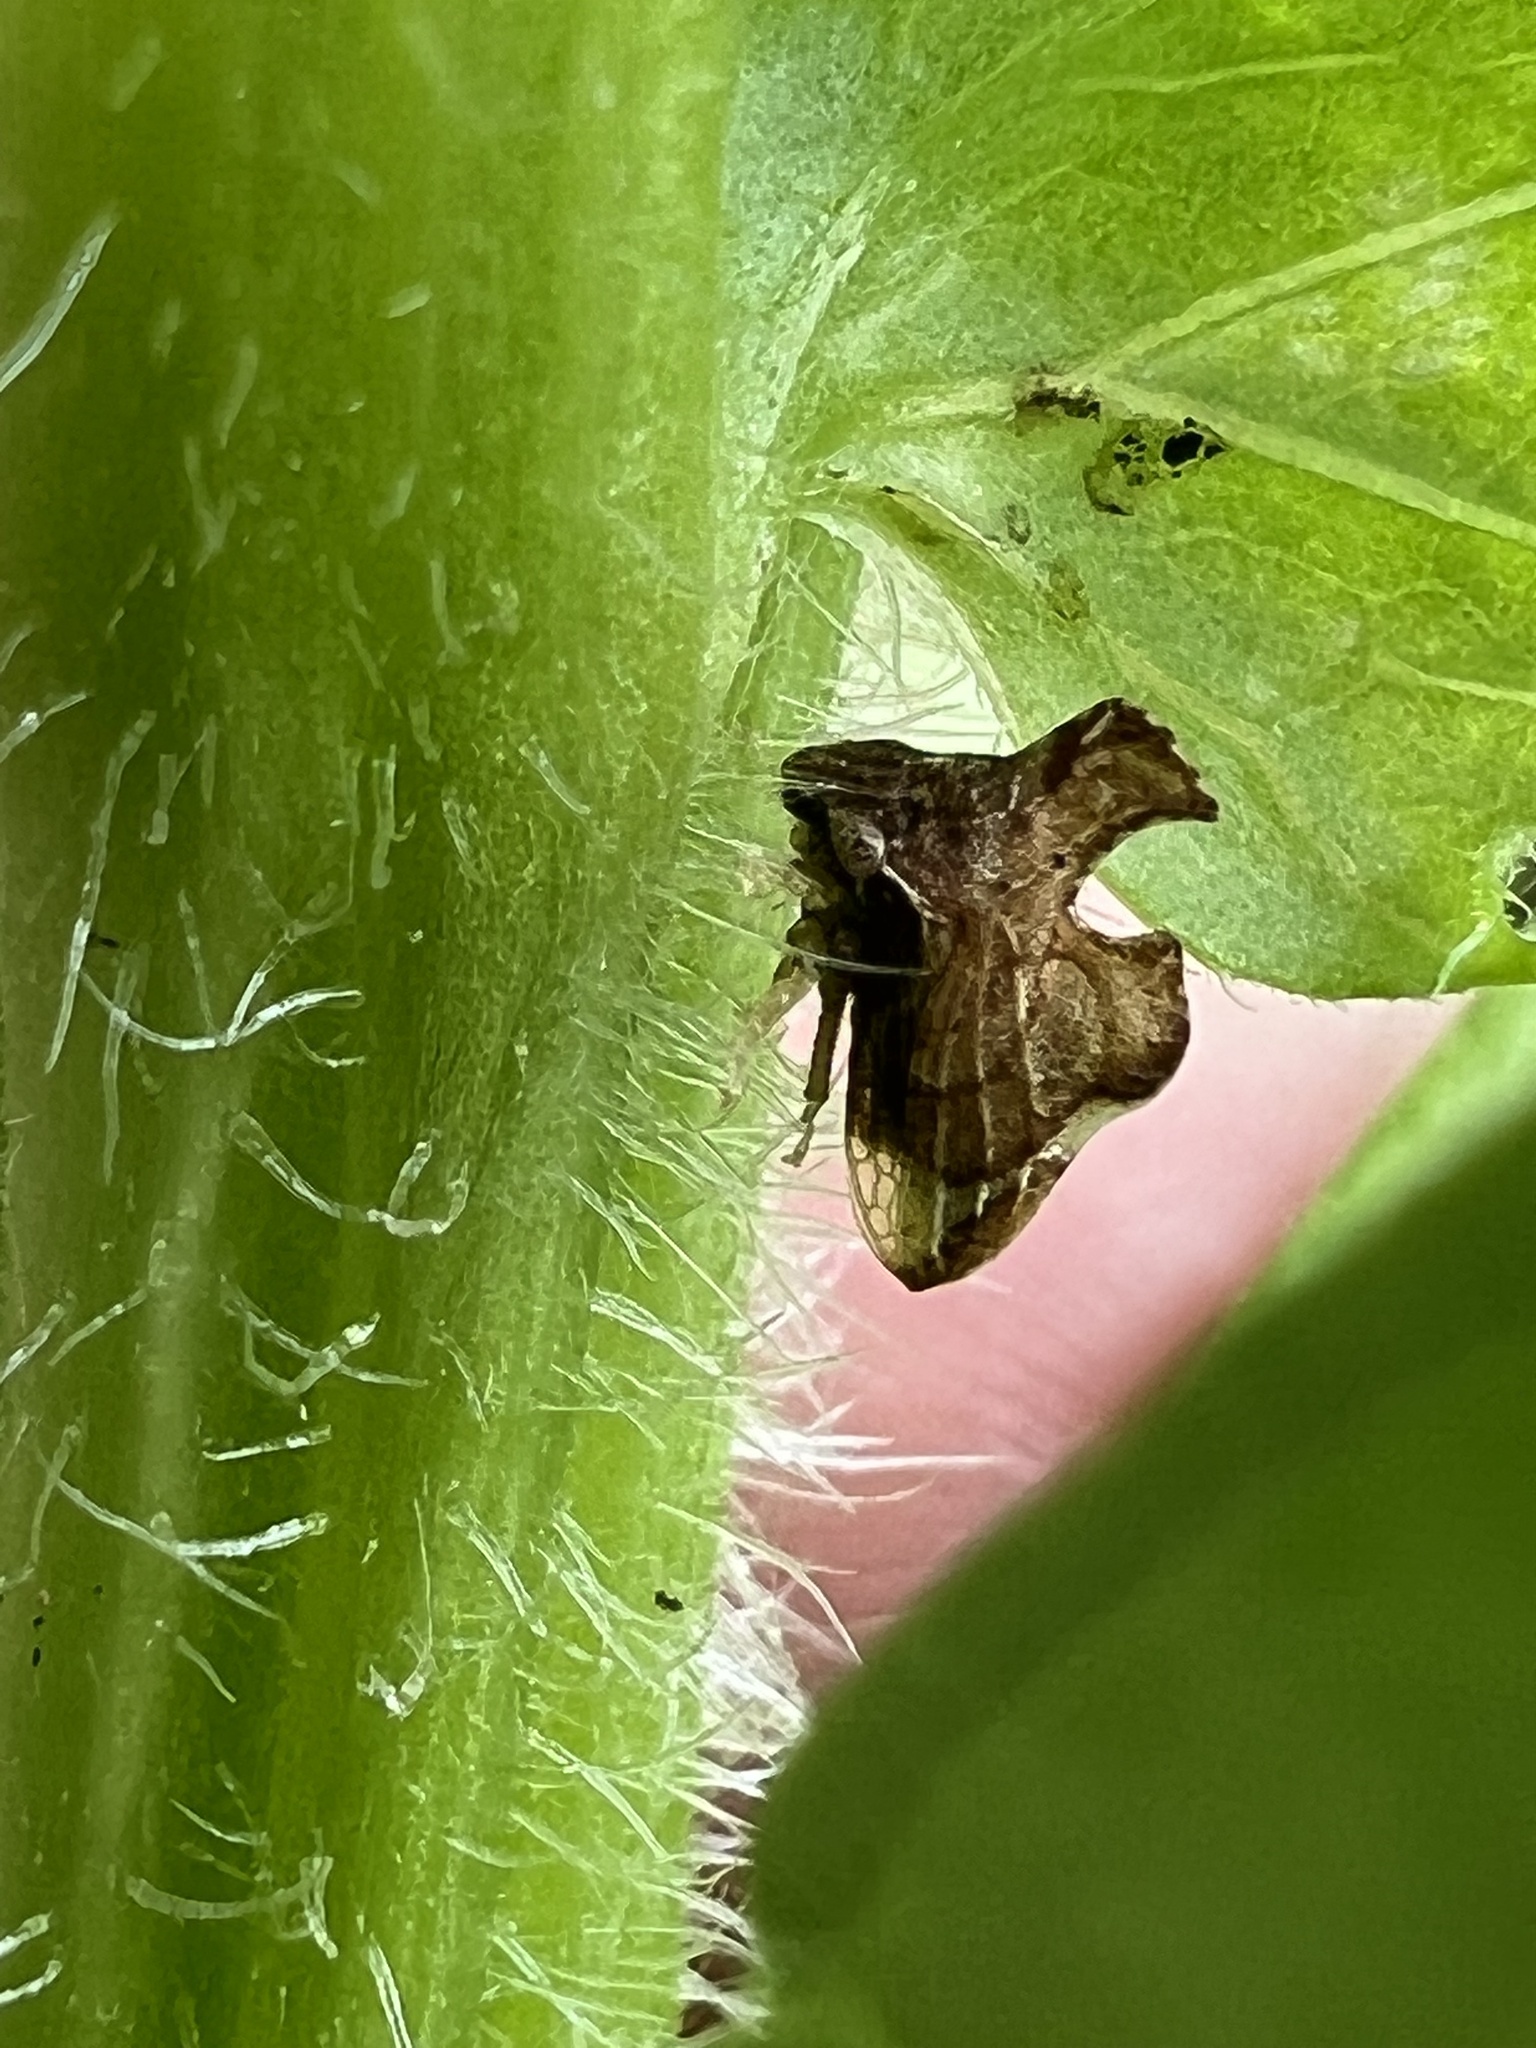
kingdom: Animalia
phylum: Arthropoda
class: Insecta
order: Hemiptera
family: Membracidae
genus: Entylia
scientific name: Entylia carinata
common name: Keeled treehopper
